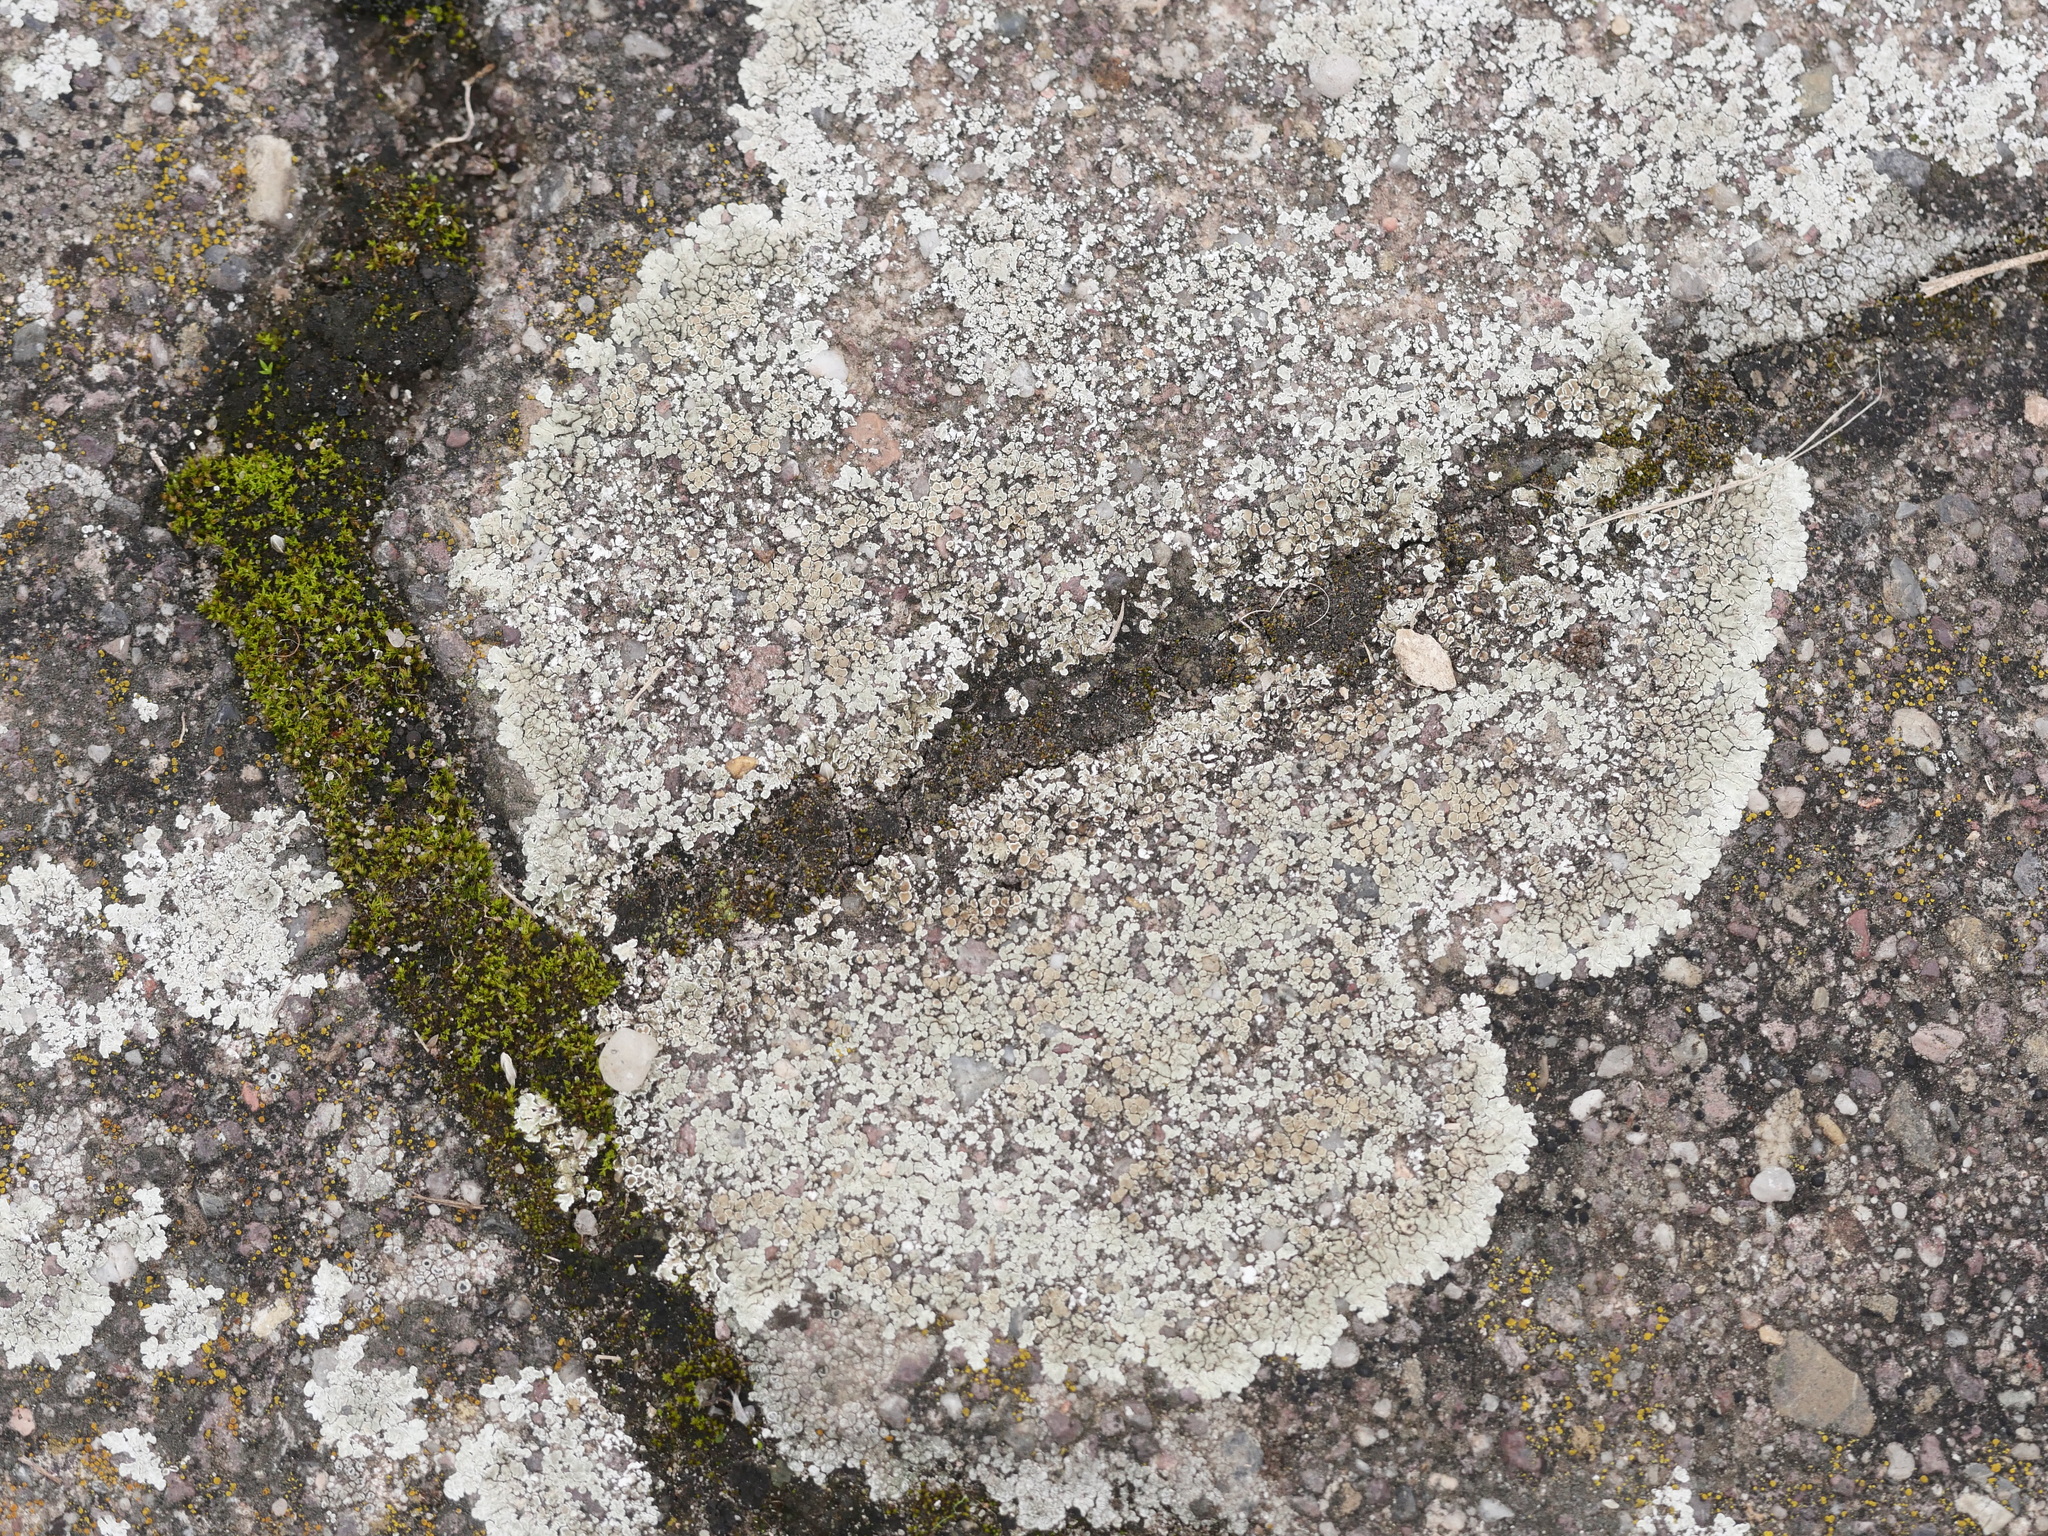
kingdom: Fungi
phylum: Ascomycota
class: Lecanoromycetes
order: Lecanorales
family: Lecanoraceae
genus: Protoparmeliopsis
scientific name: Protoparmeliopsis muralis
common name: Stonewall rim lichen
